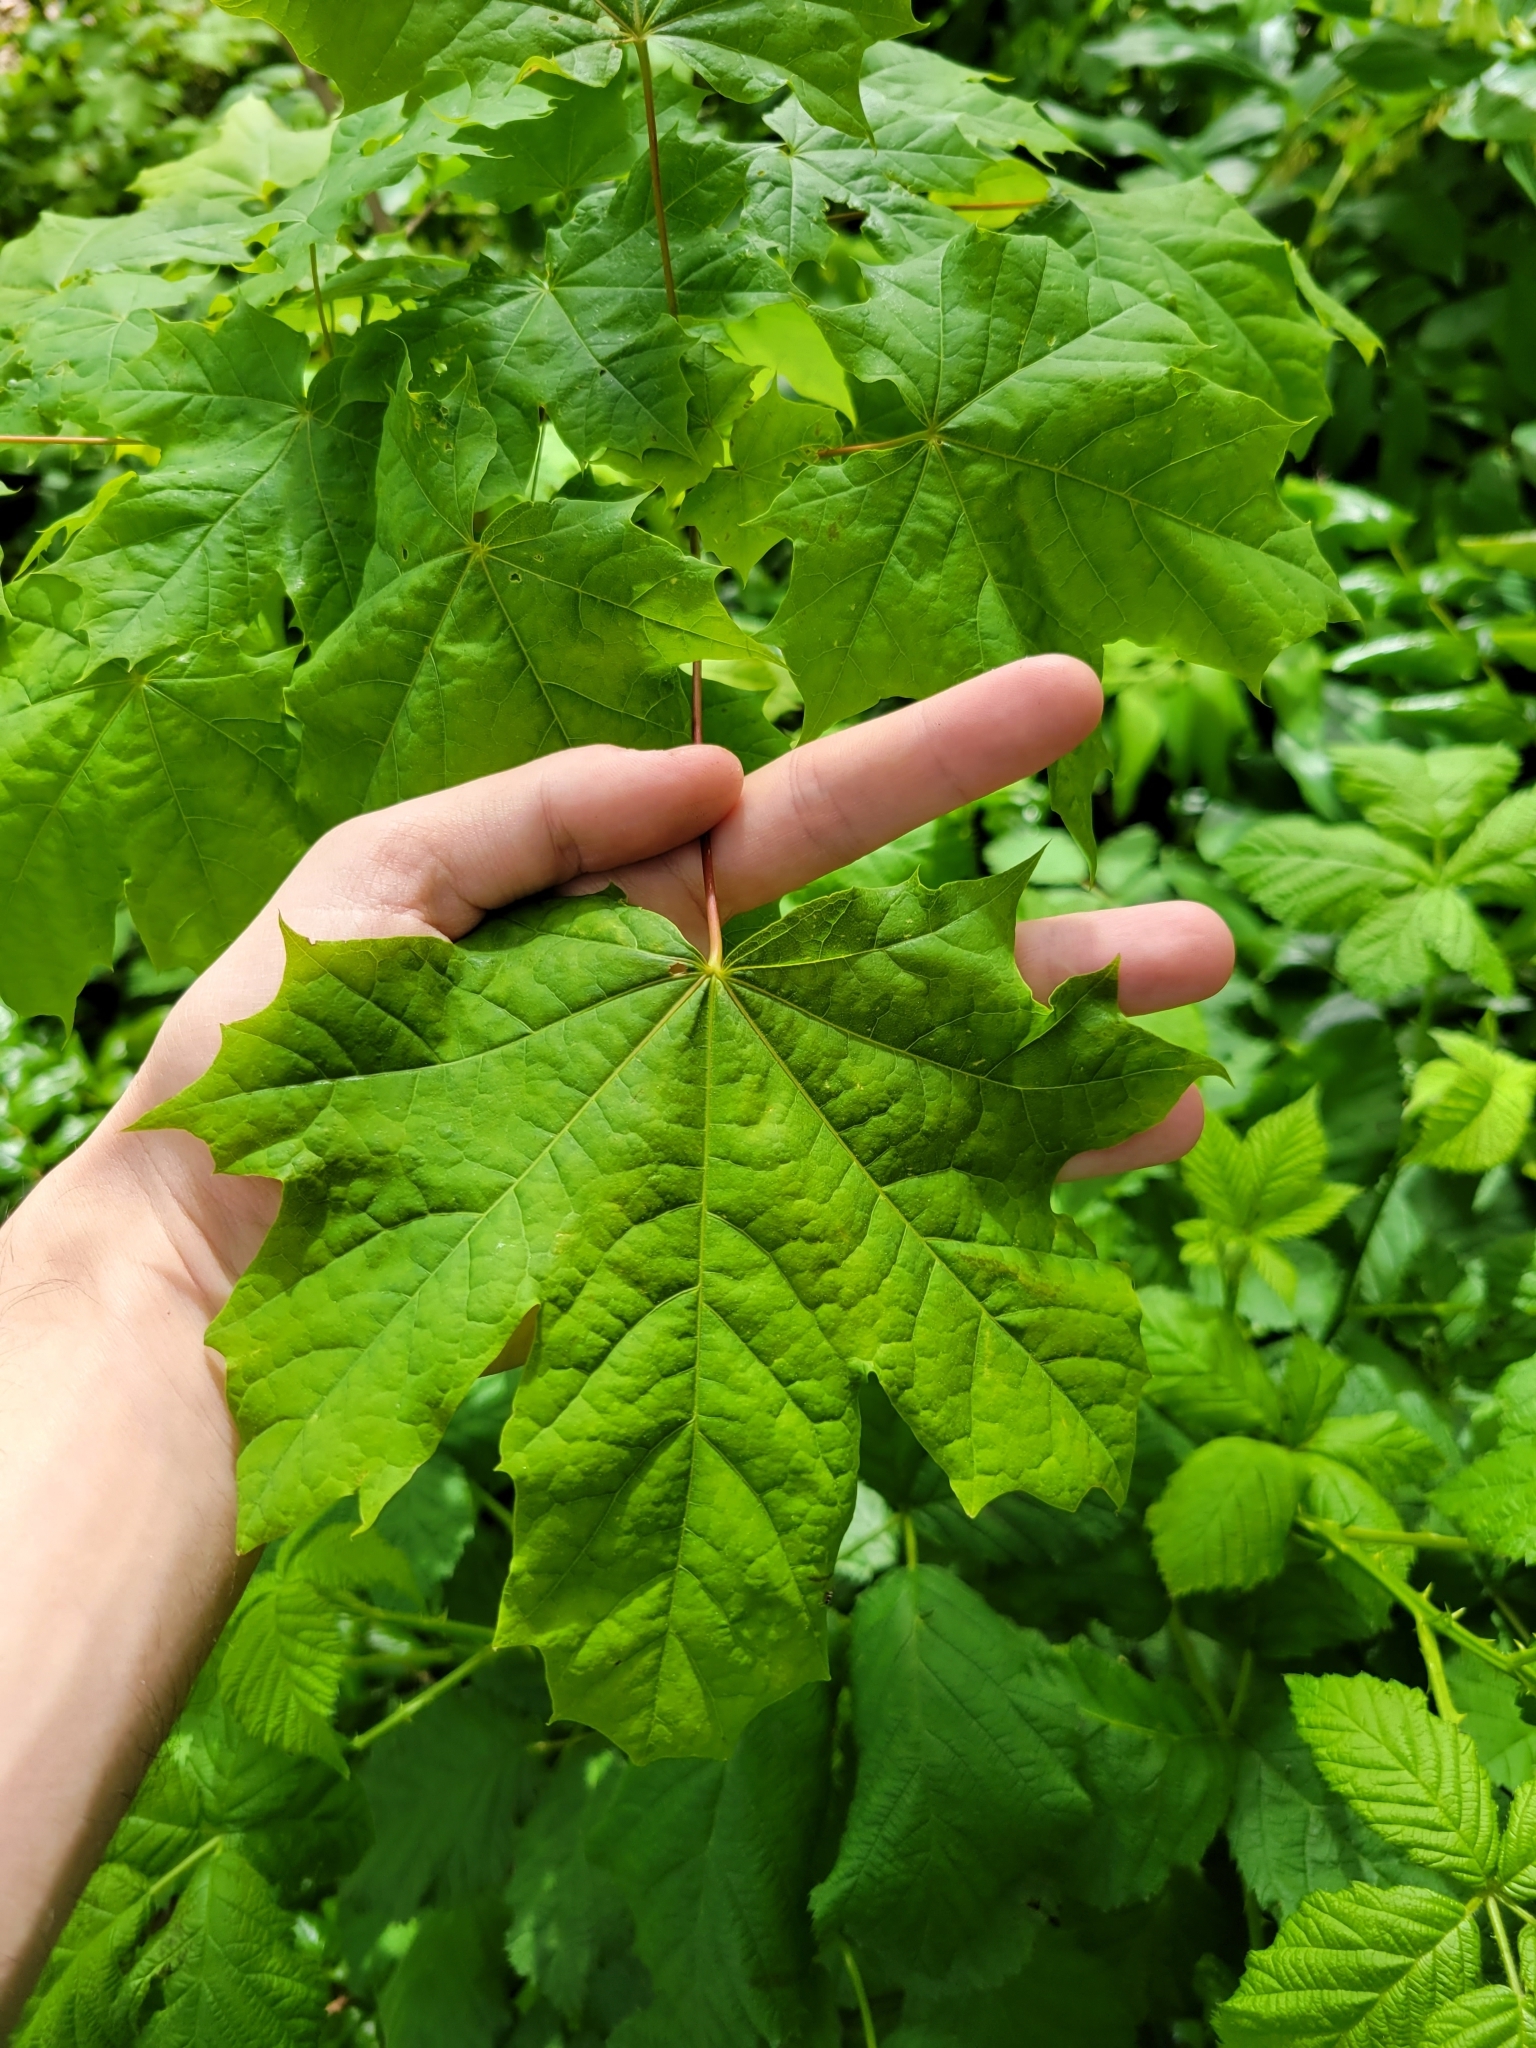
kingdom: Plantae
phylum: Tracheophyta
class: Magnoliopsida
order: Sapindales
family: Sapindaceae
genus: Acer
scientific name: Acer platanoides
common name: Norway maple
